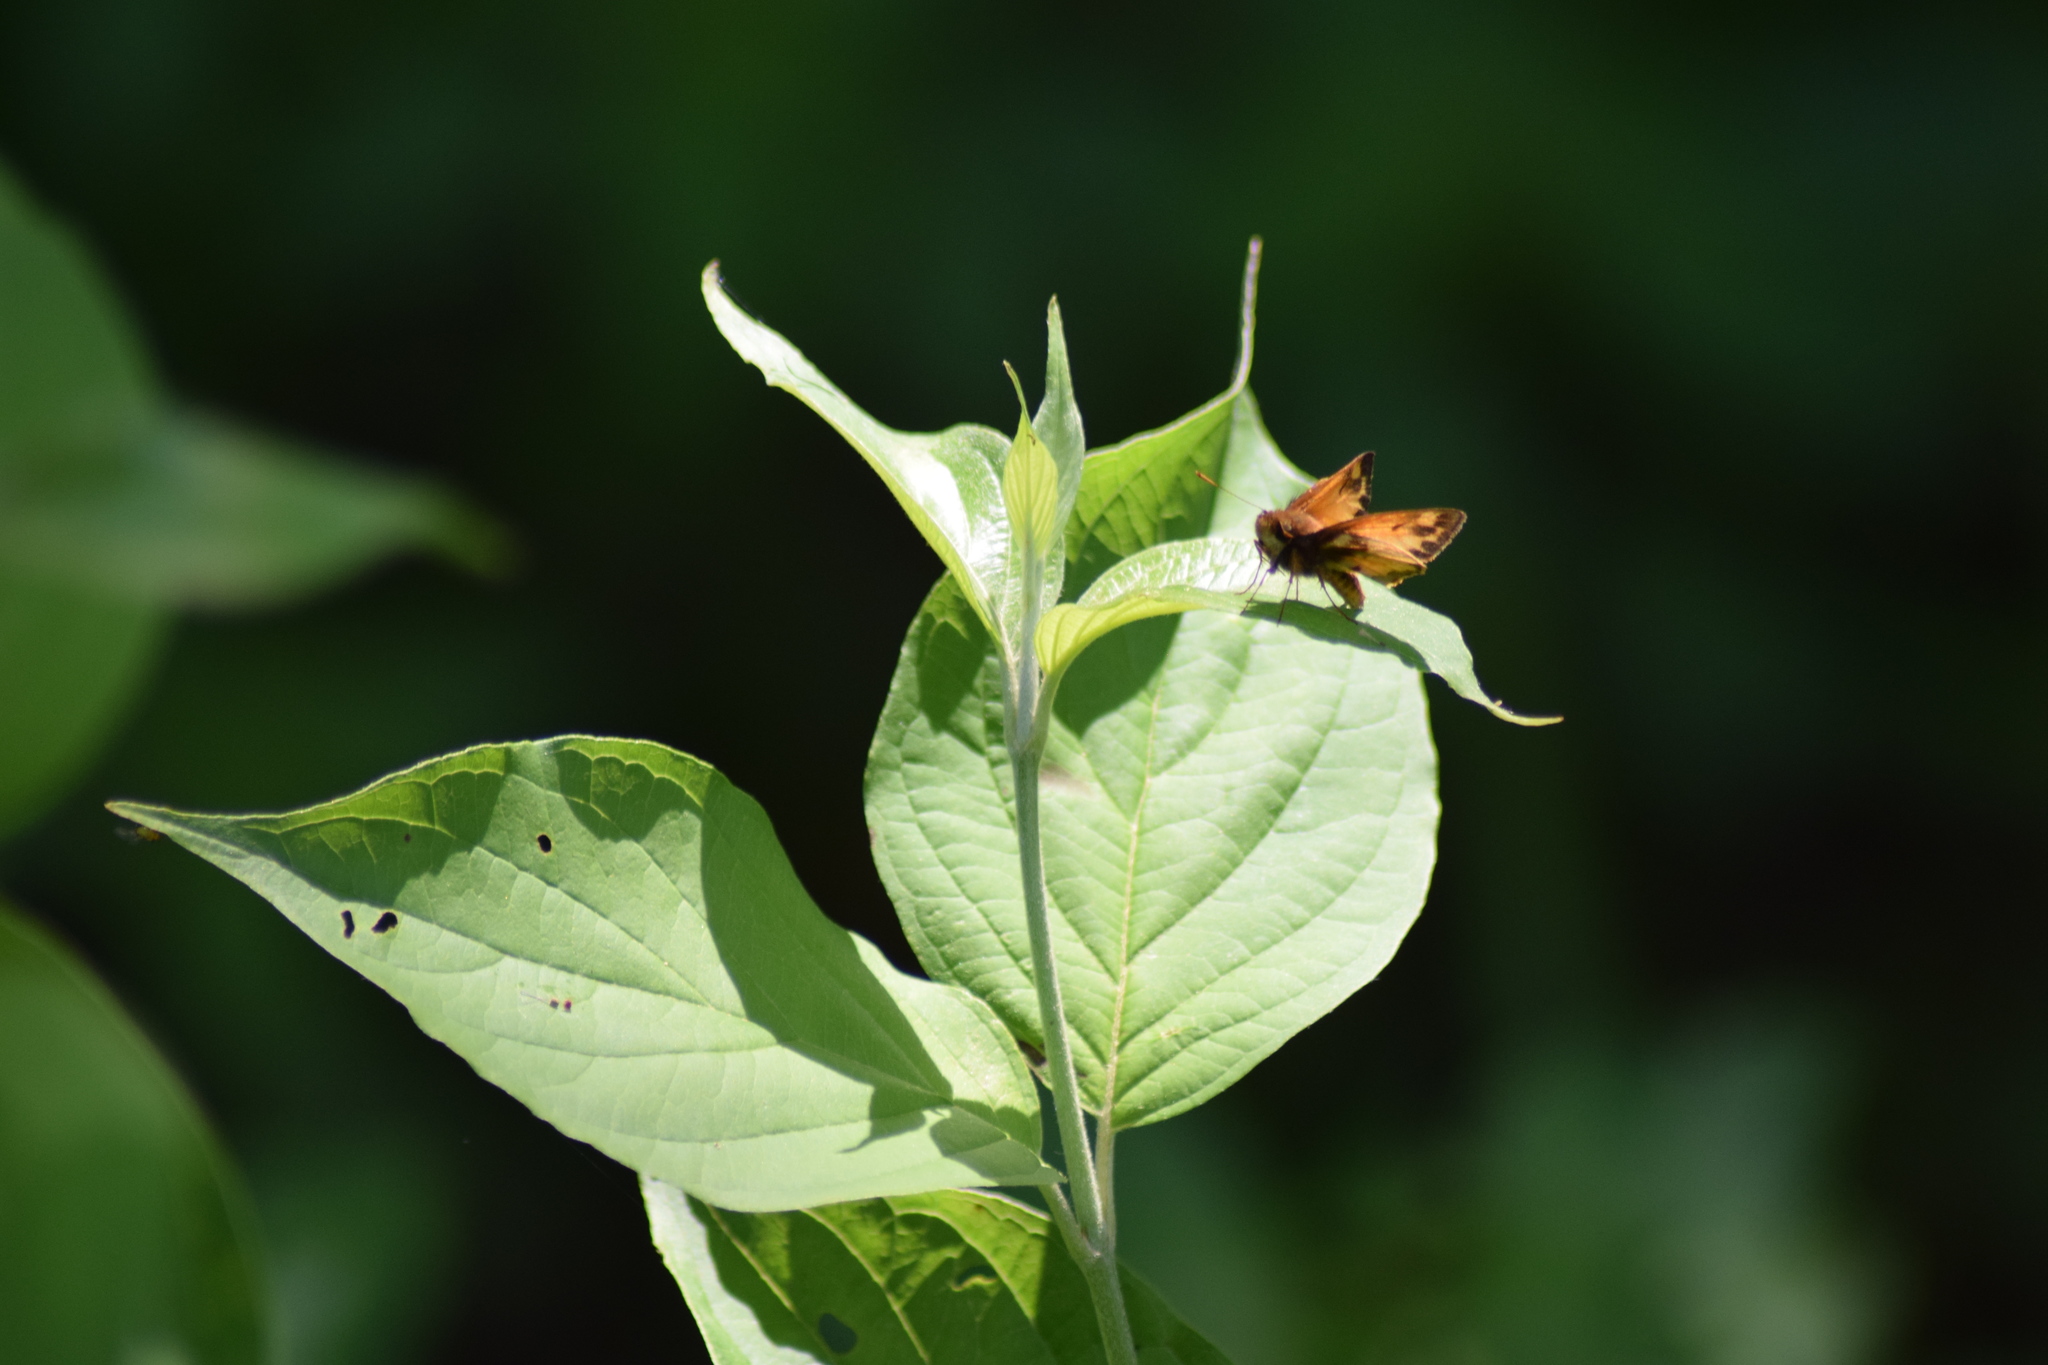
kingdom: Animalia
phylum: Arthropoda
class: Insecta
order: Lepidoptera
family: Hesperiidae
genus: Lon
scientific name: Lon zabulon
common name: Zabulon skipper
